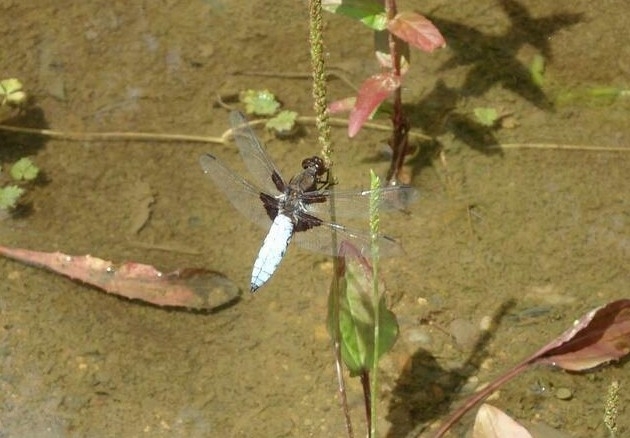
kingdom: Animalia
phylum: Arthropoda
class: Insecta
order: Odonata
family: Libellulidae
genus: Libellula
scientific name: Libellula depressa
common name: Broad-bodied chaser
